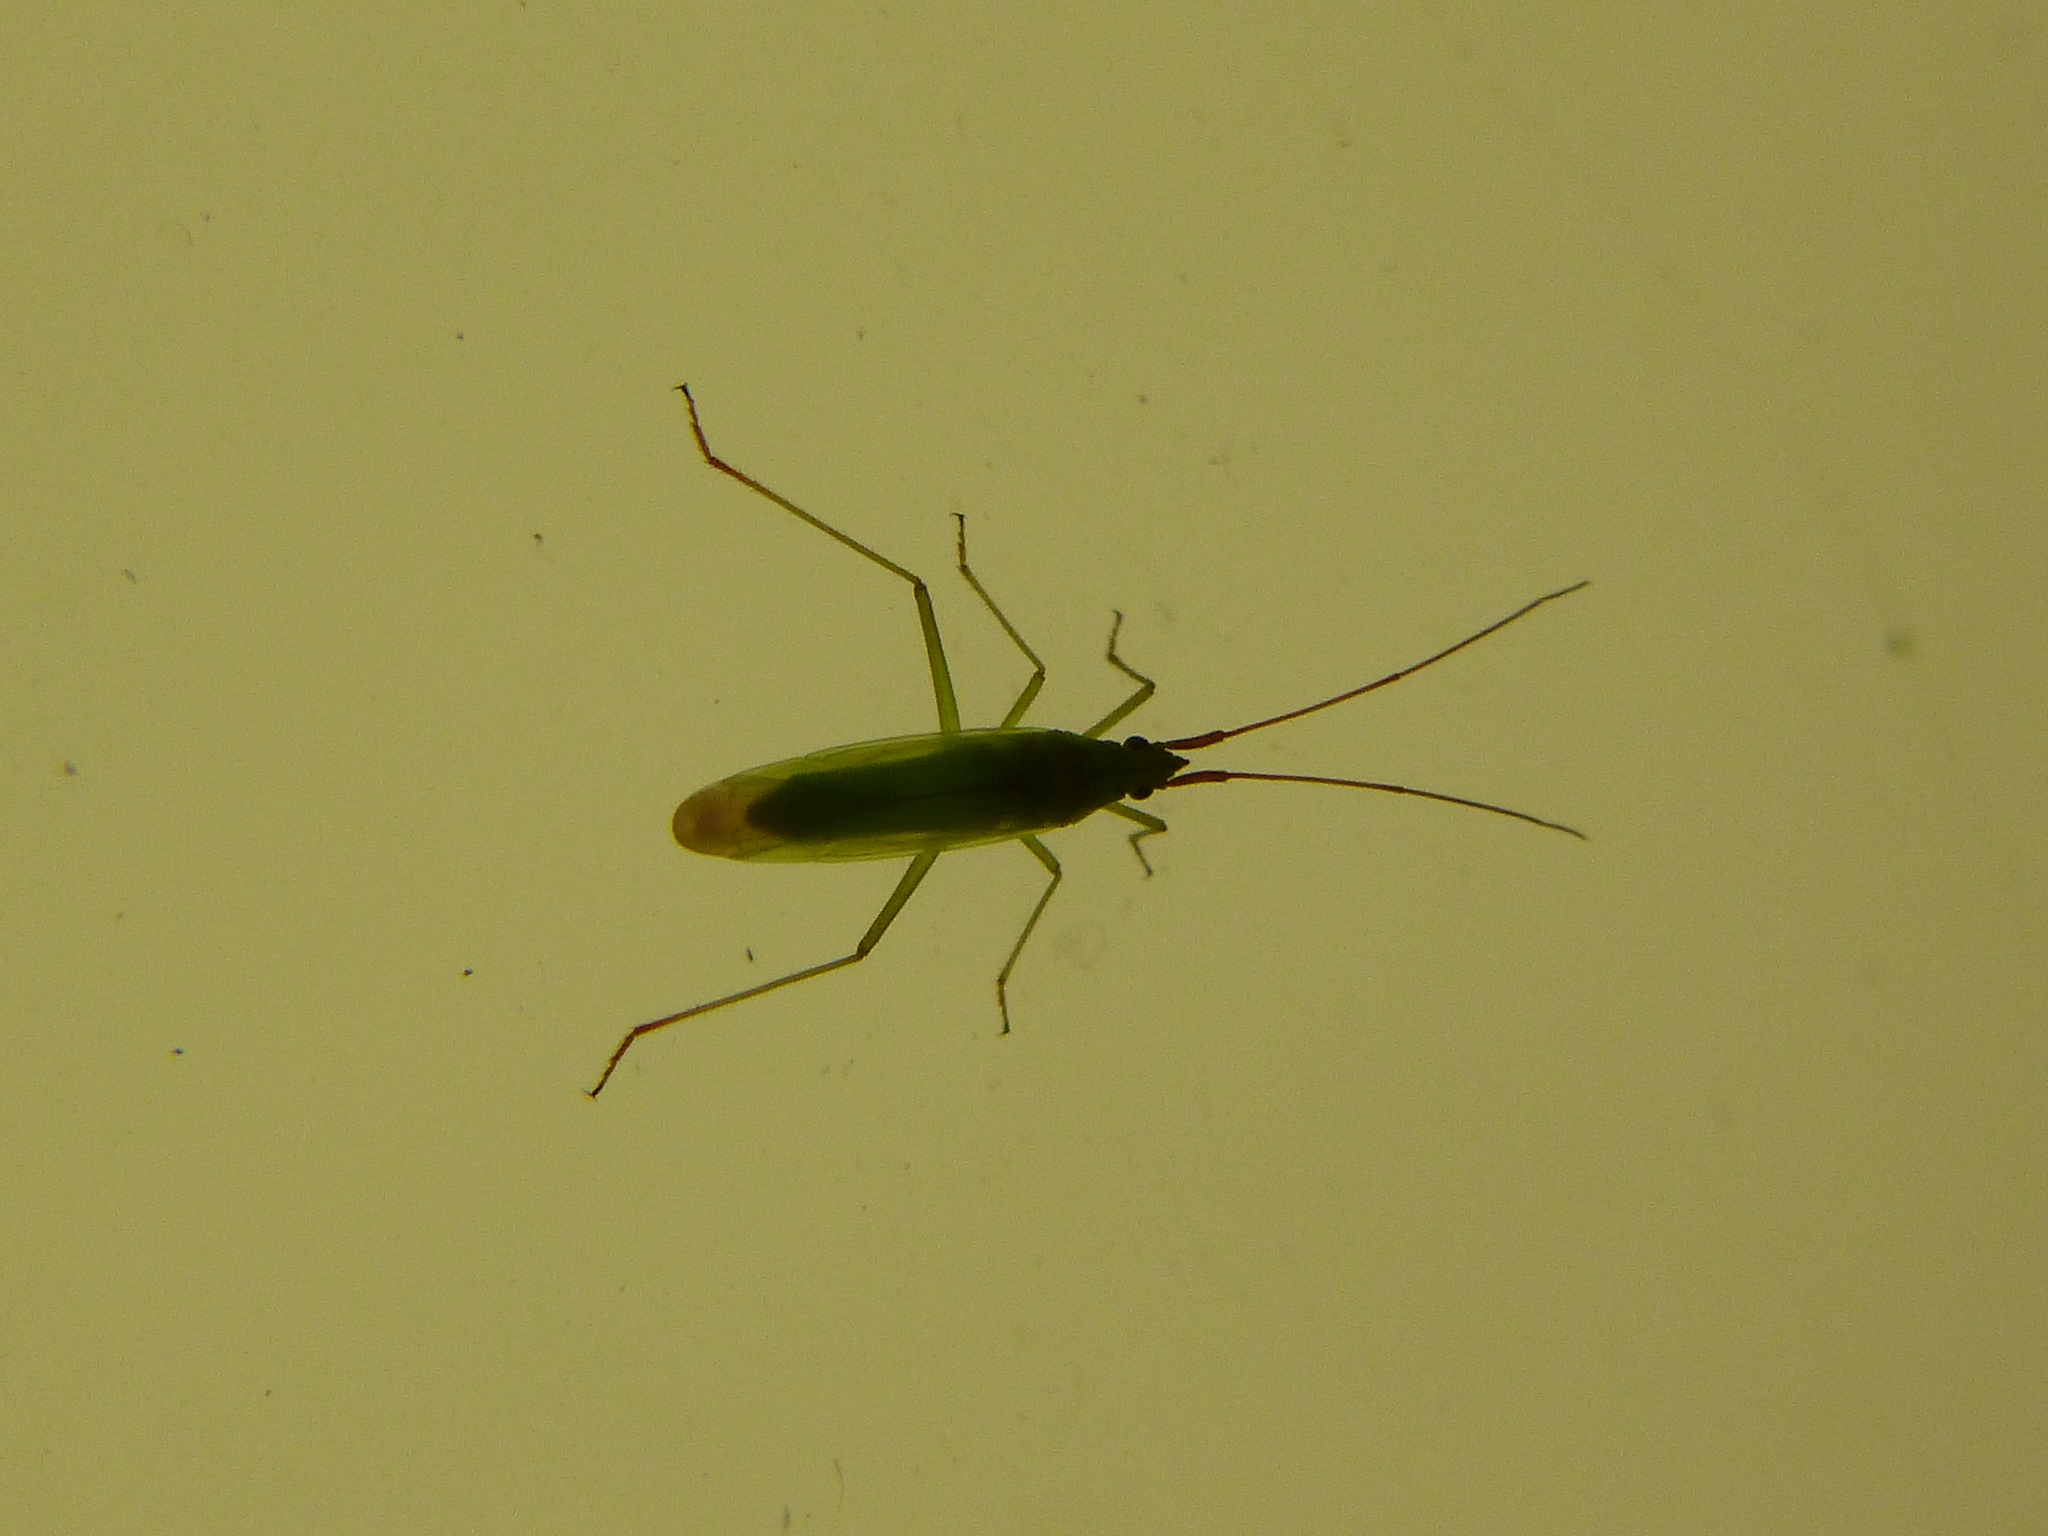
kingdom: Animalia
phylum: Arthropoda
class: Insecta
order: Hemiptera
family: Miridae
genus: Trigonotylus
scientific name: Trigonotylus ruficornis
